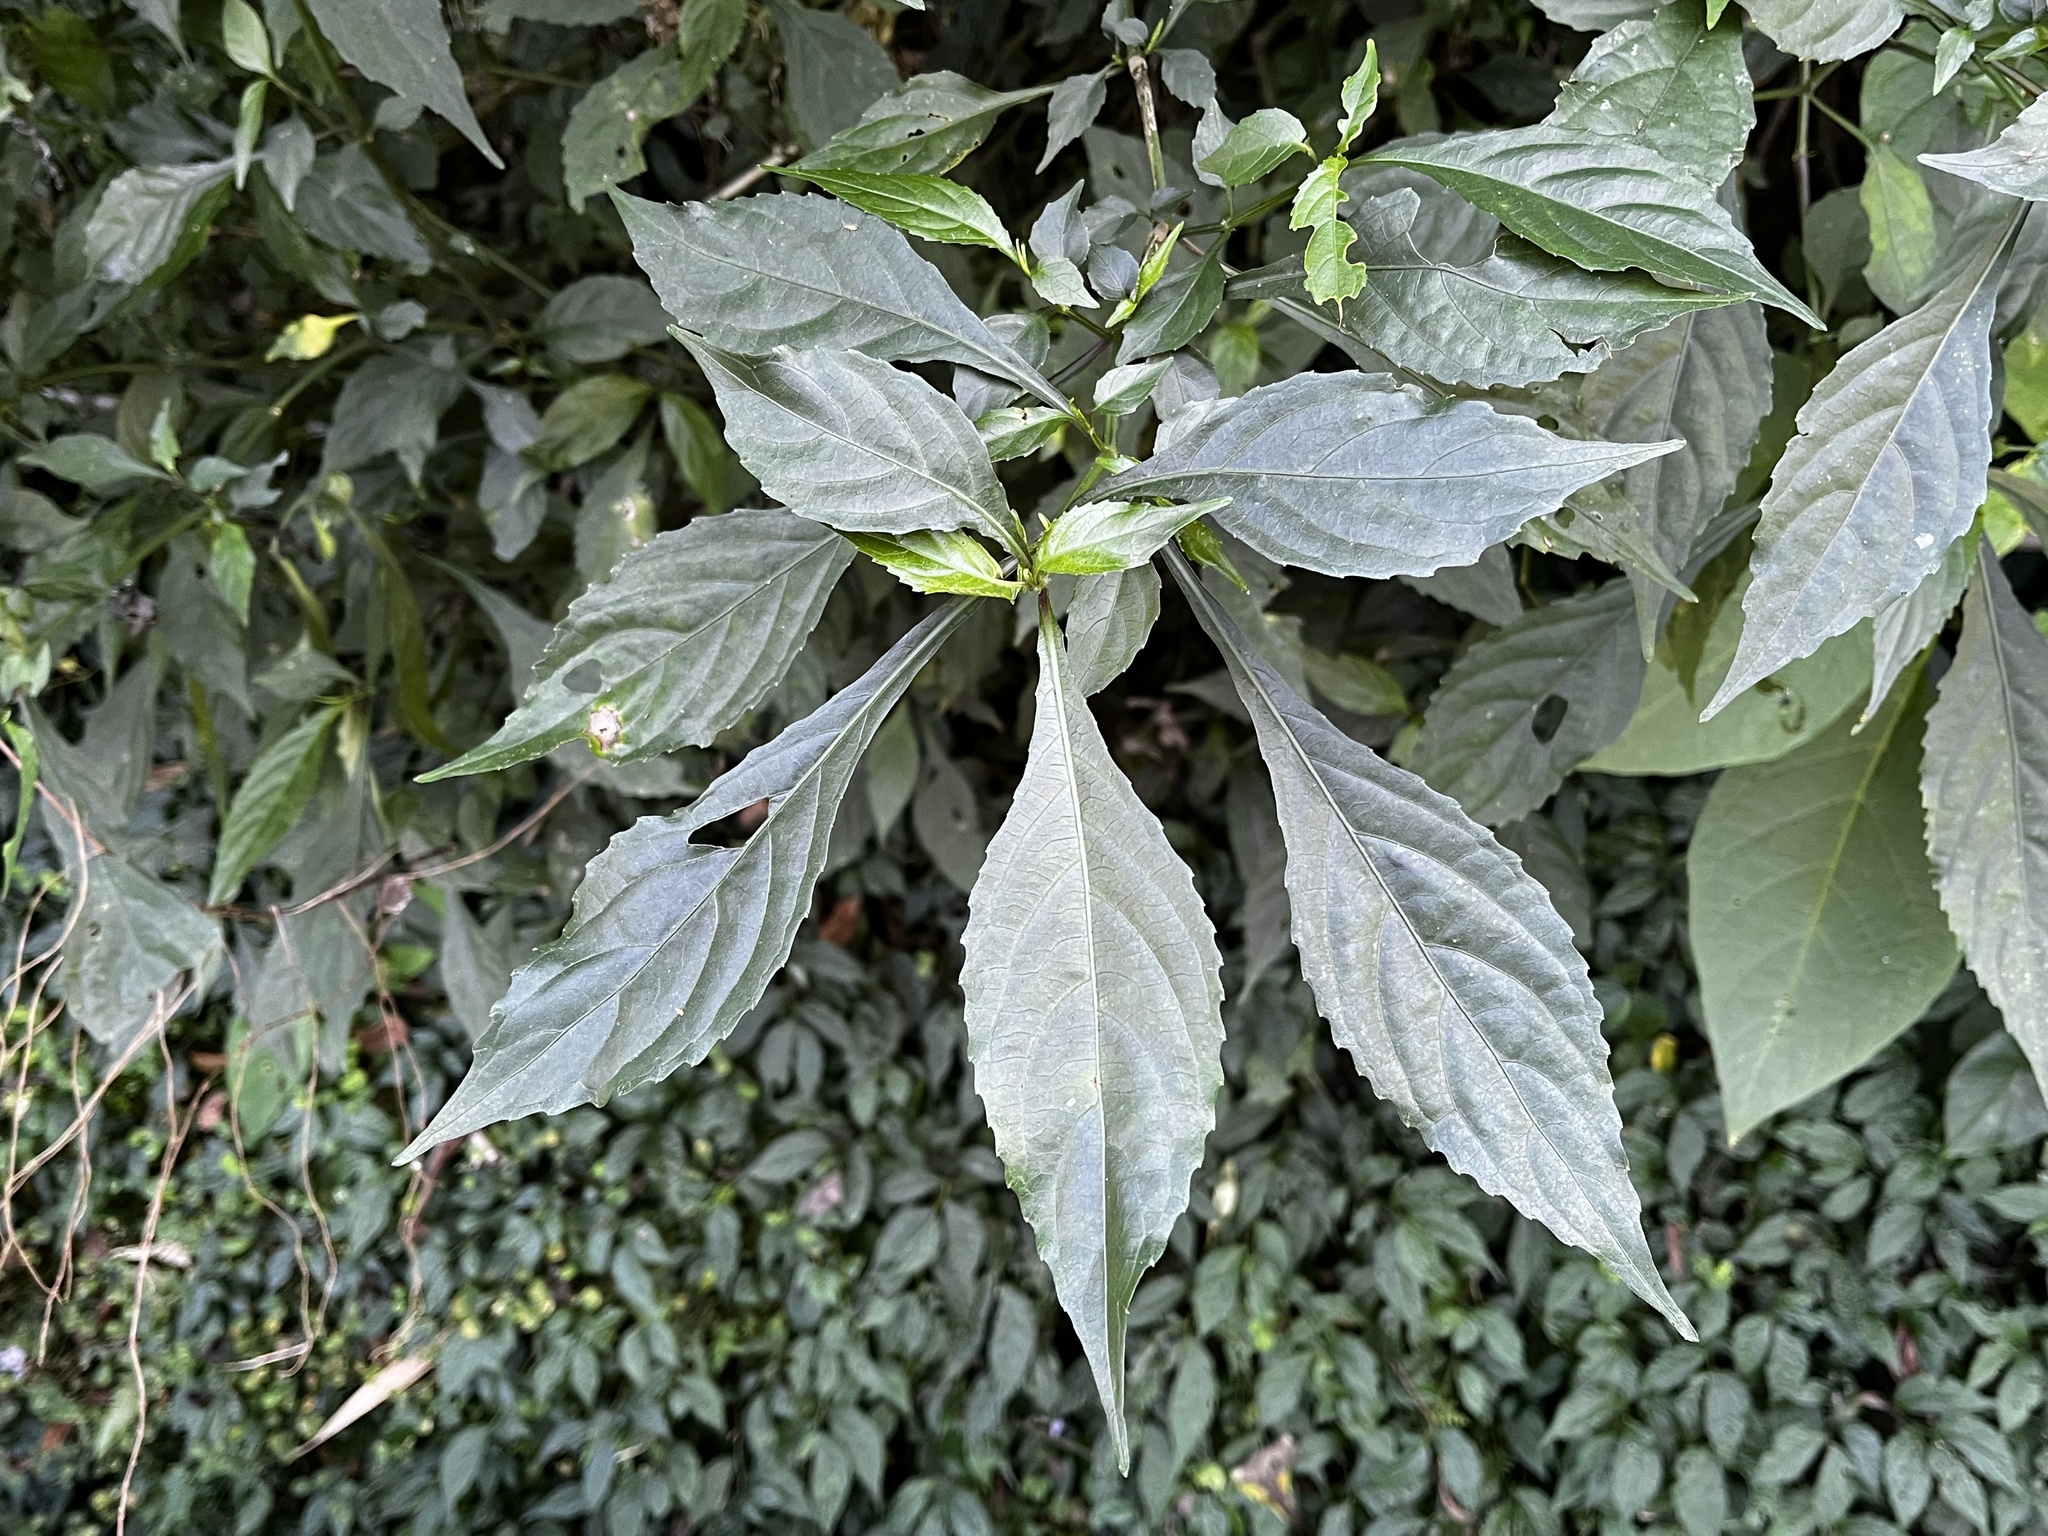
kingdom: Plantae
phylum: Tracheophyta
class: Magnoliopsida
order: Lamiales
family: Acanthaceae
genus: Strobilanthes
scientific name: Strobilanthes flexicaulis
